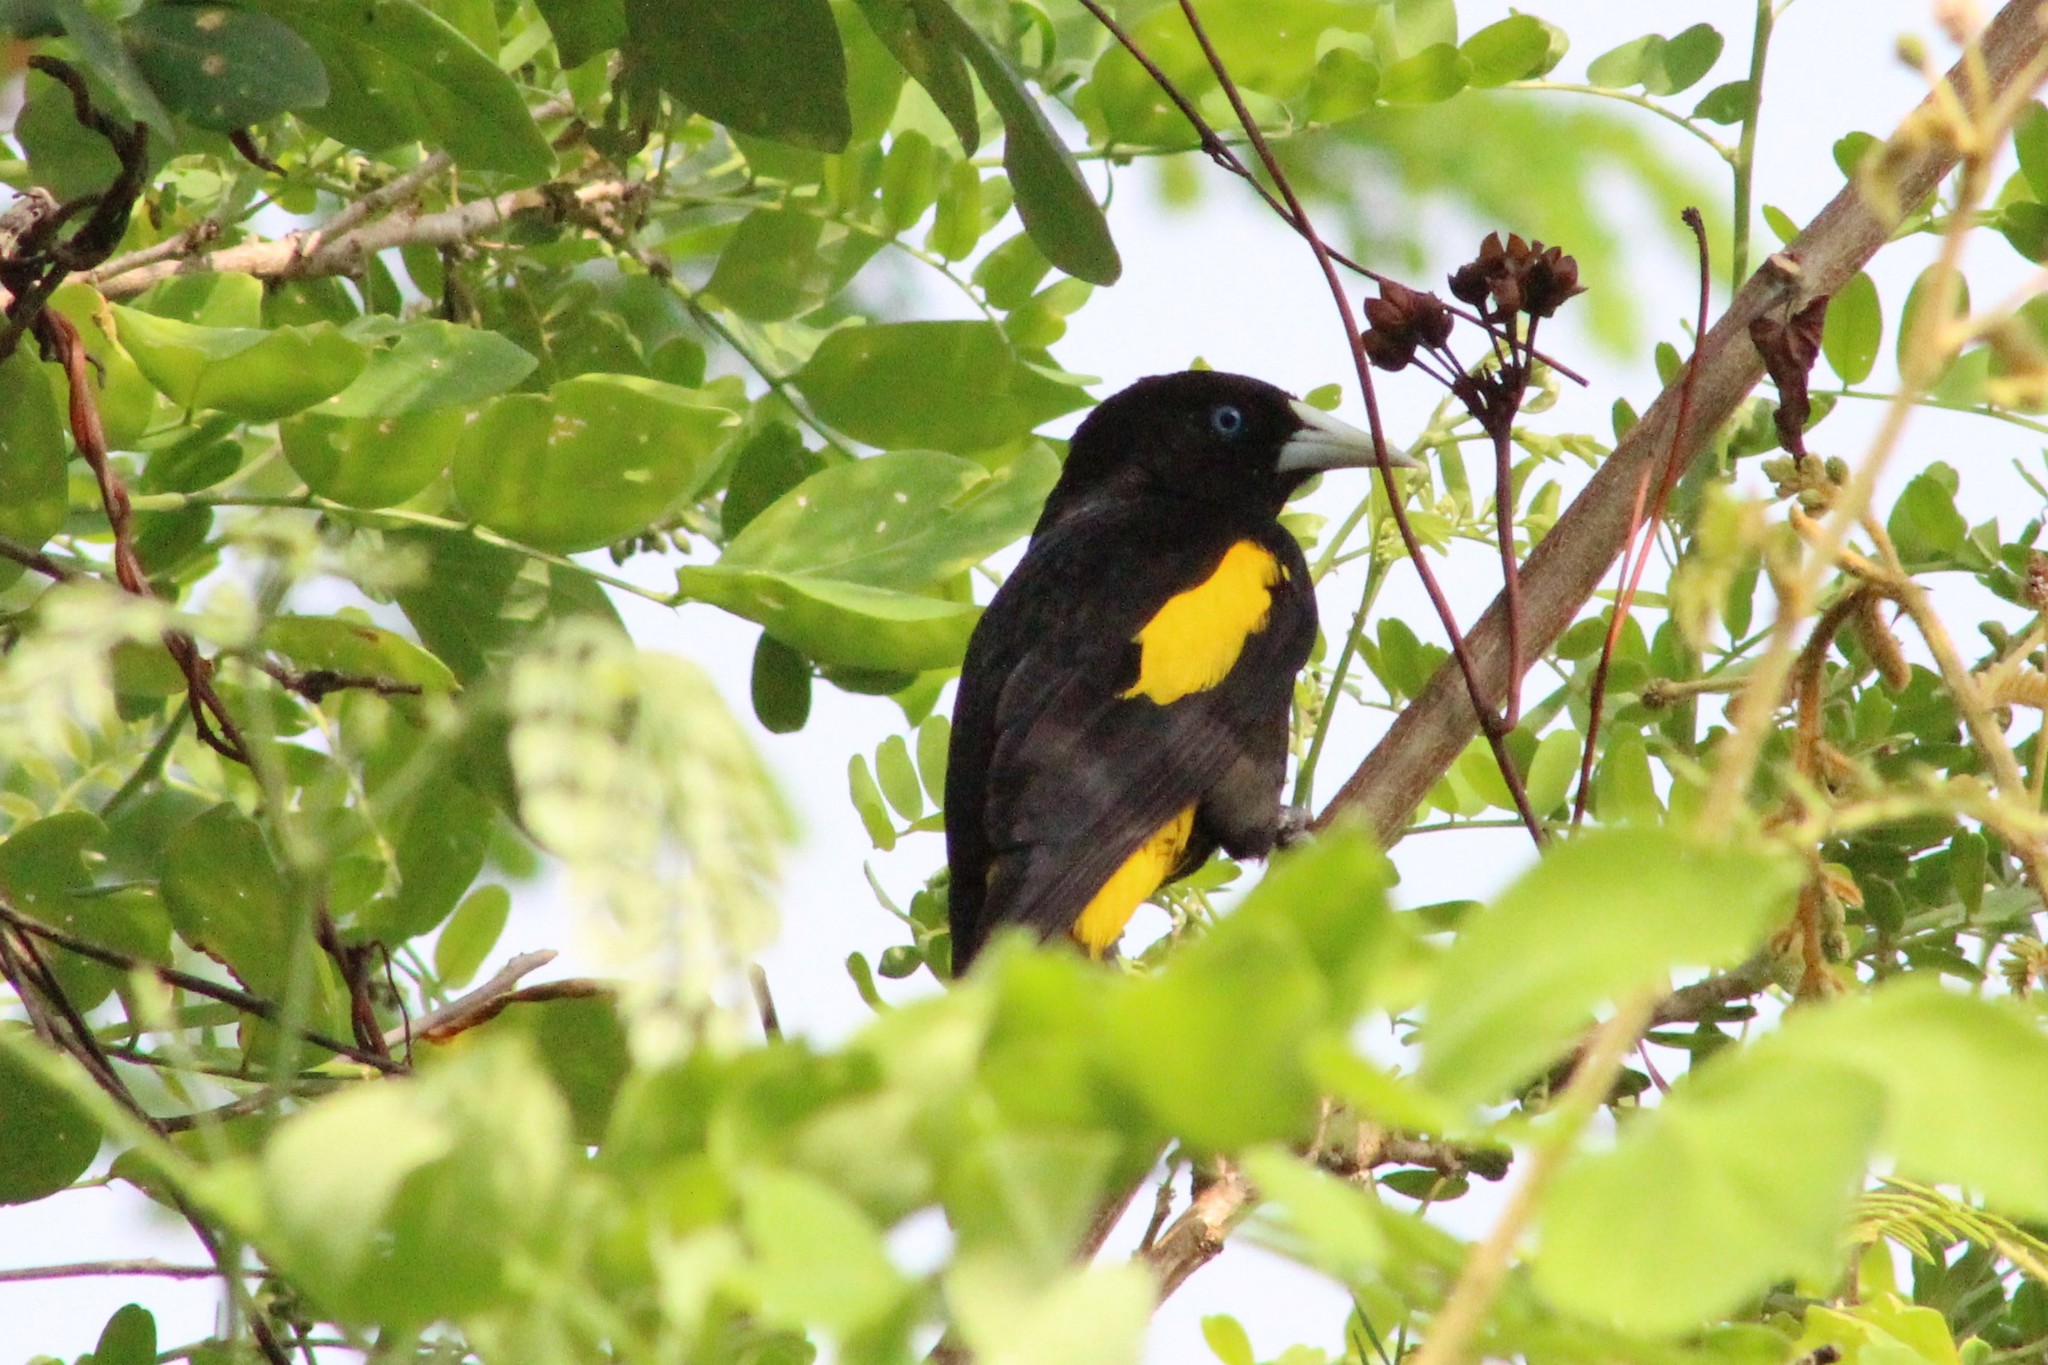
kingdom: Animalia
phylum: Chordata
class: Aves
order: Passeriformes
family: Icteridae
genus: Cacicus
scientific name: Cacicus cela
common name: Yellow-rumped cacique
